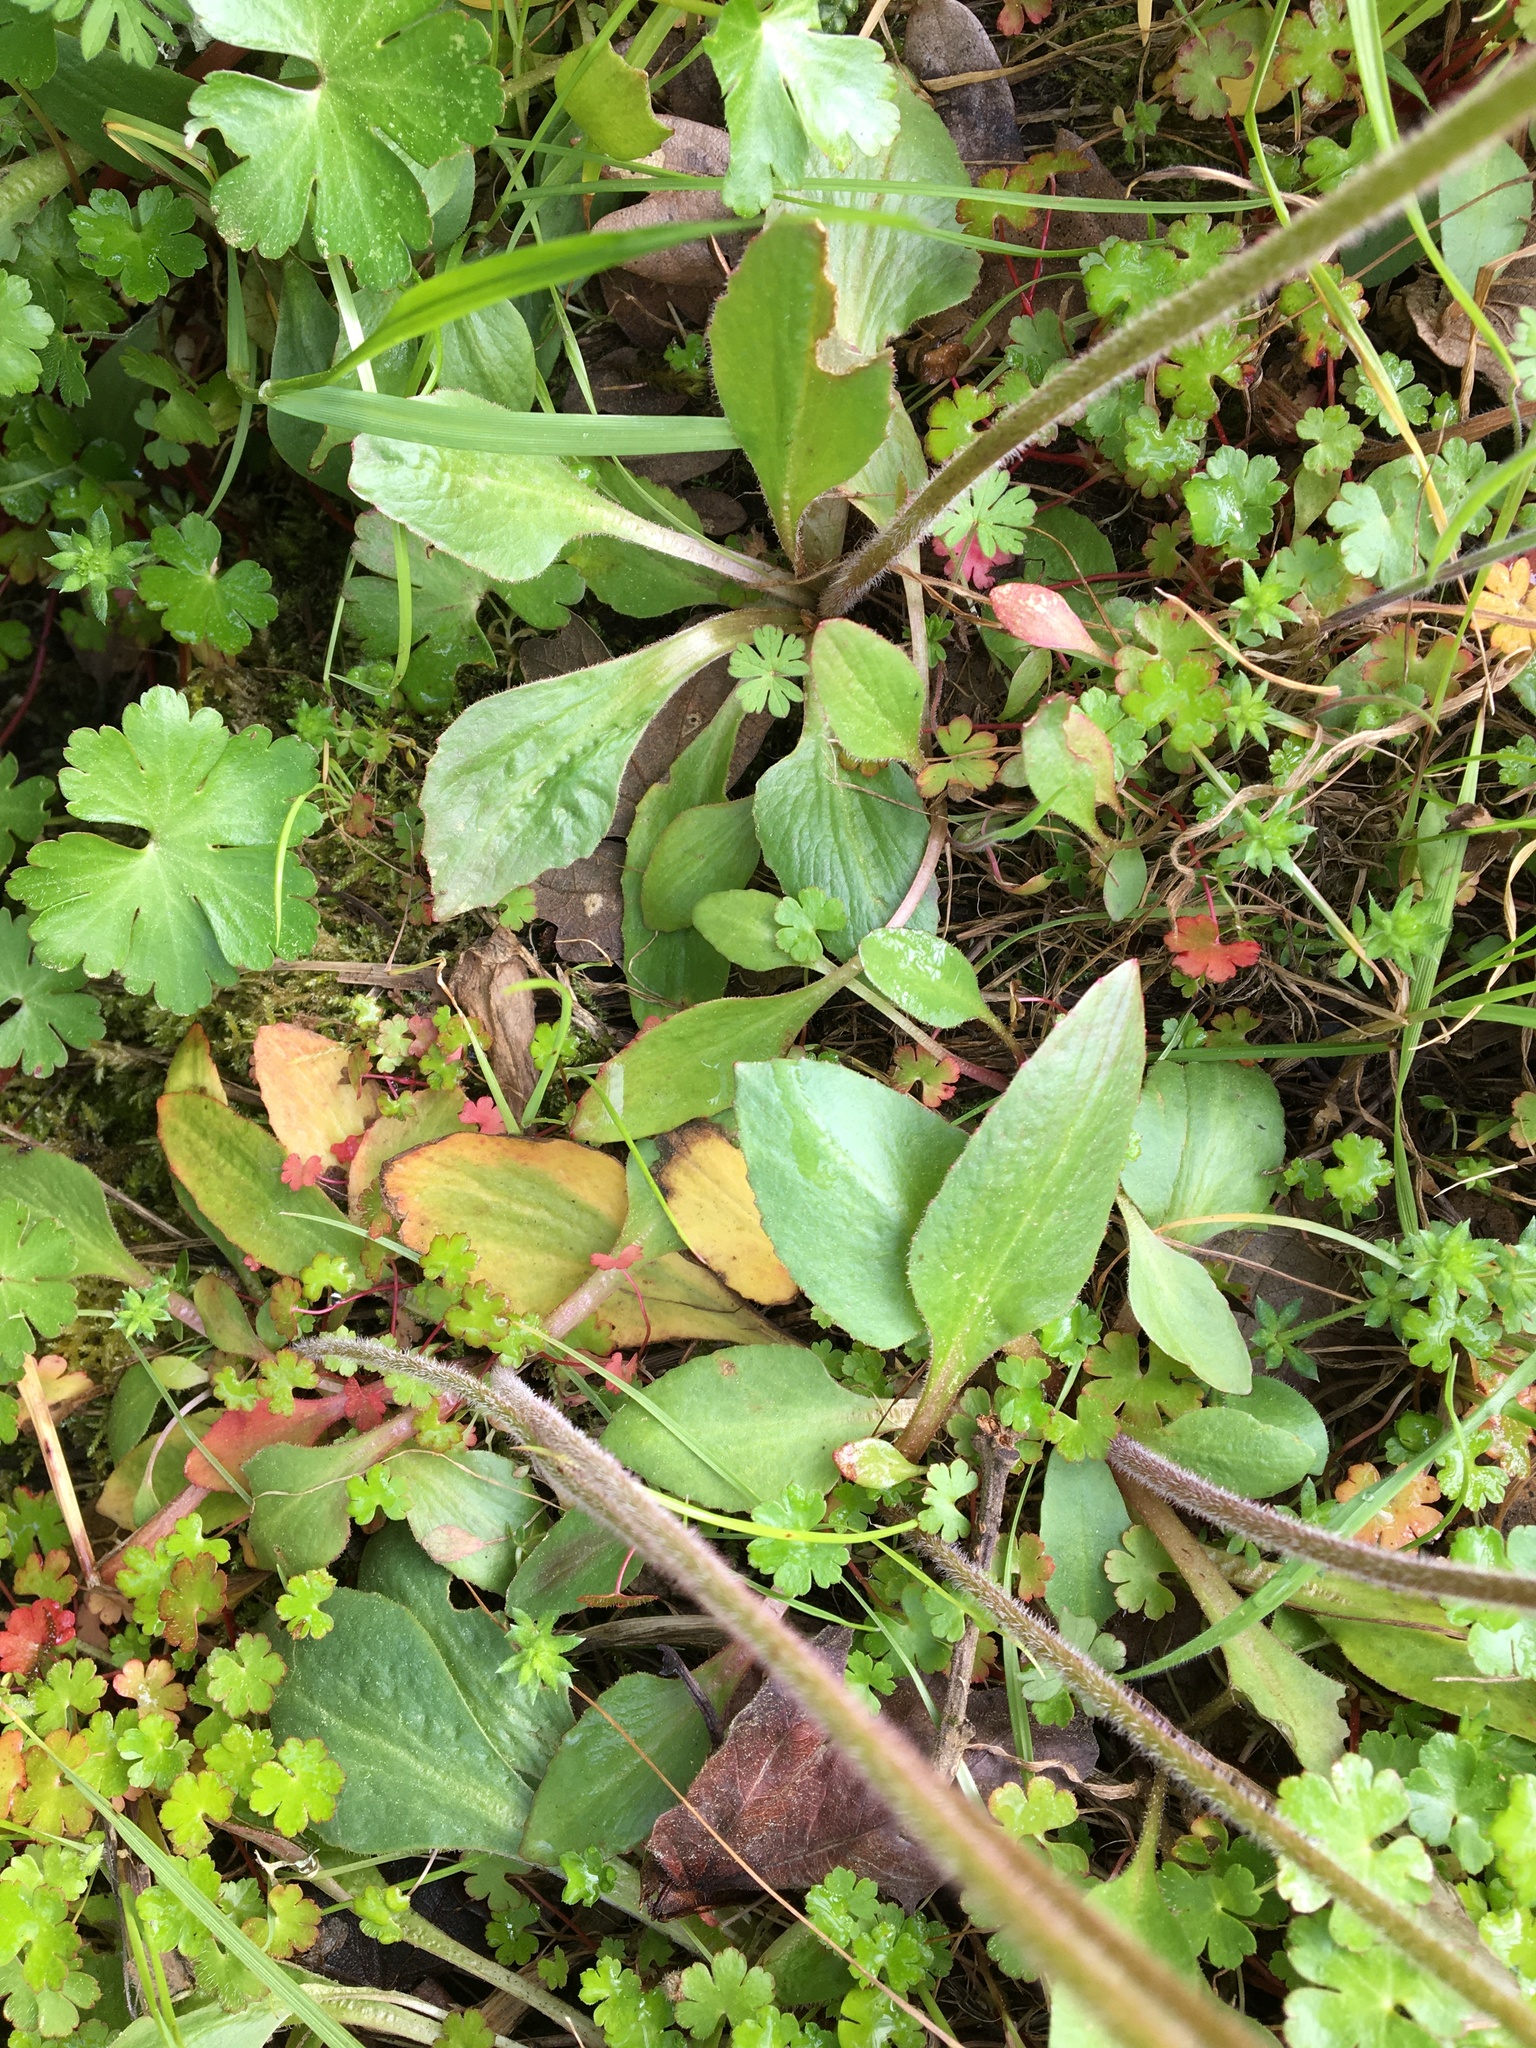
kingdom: Plantae
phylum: Tracheophyta
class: Magnoliopsida
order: Saxifragales
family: Saxifragaceae
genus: Micranthes
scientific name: Micranthes integrifolia
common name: Wholeleaf saxifrage
